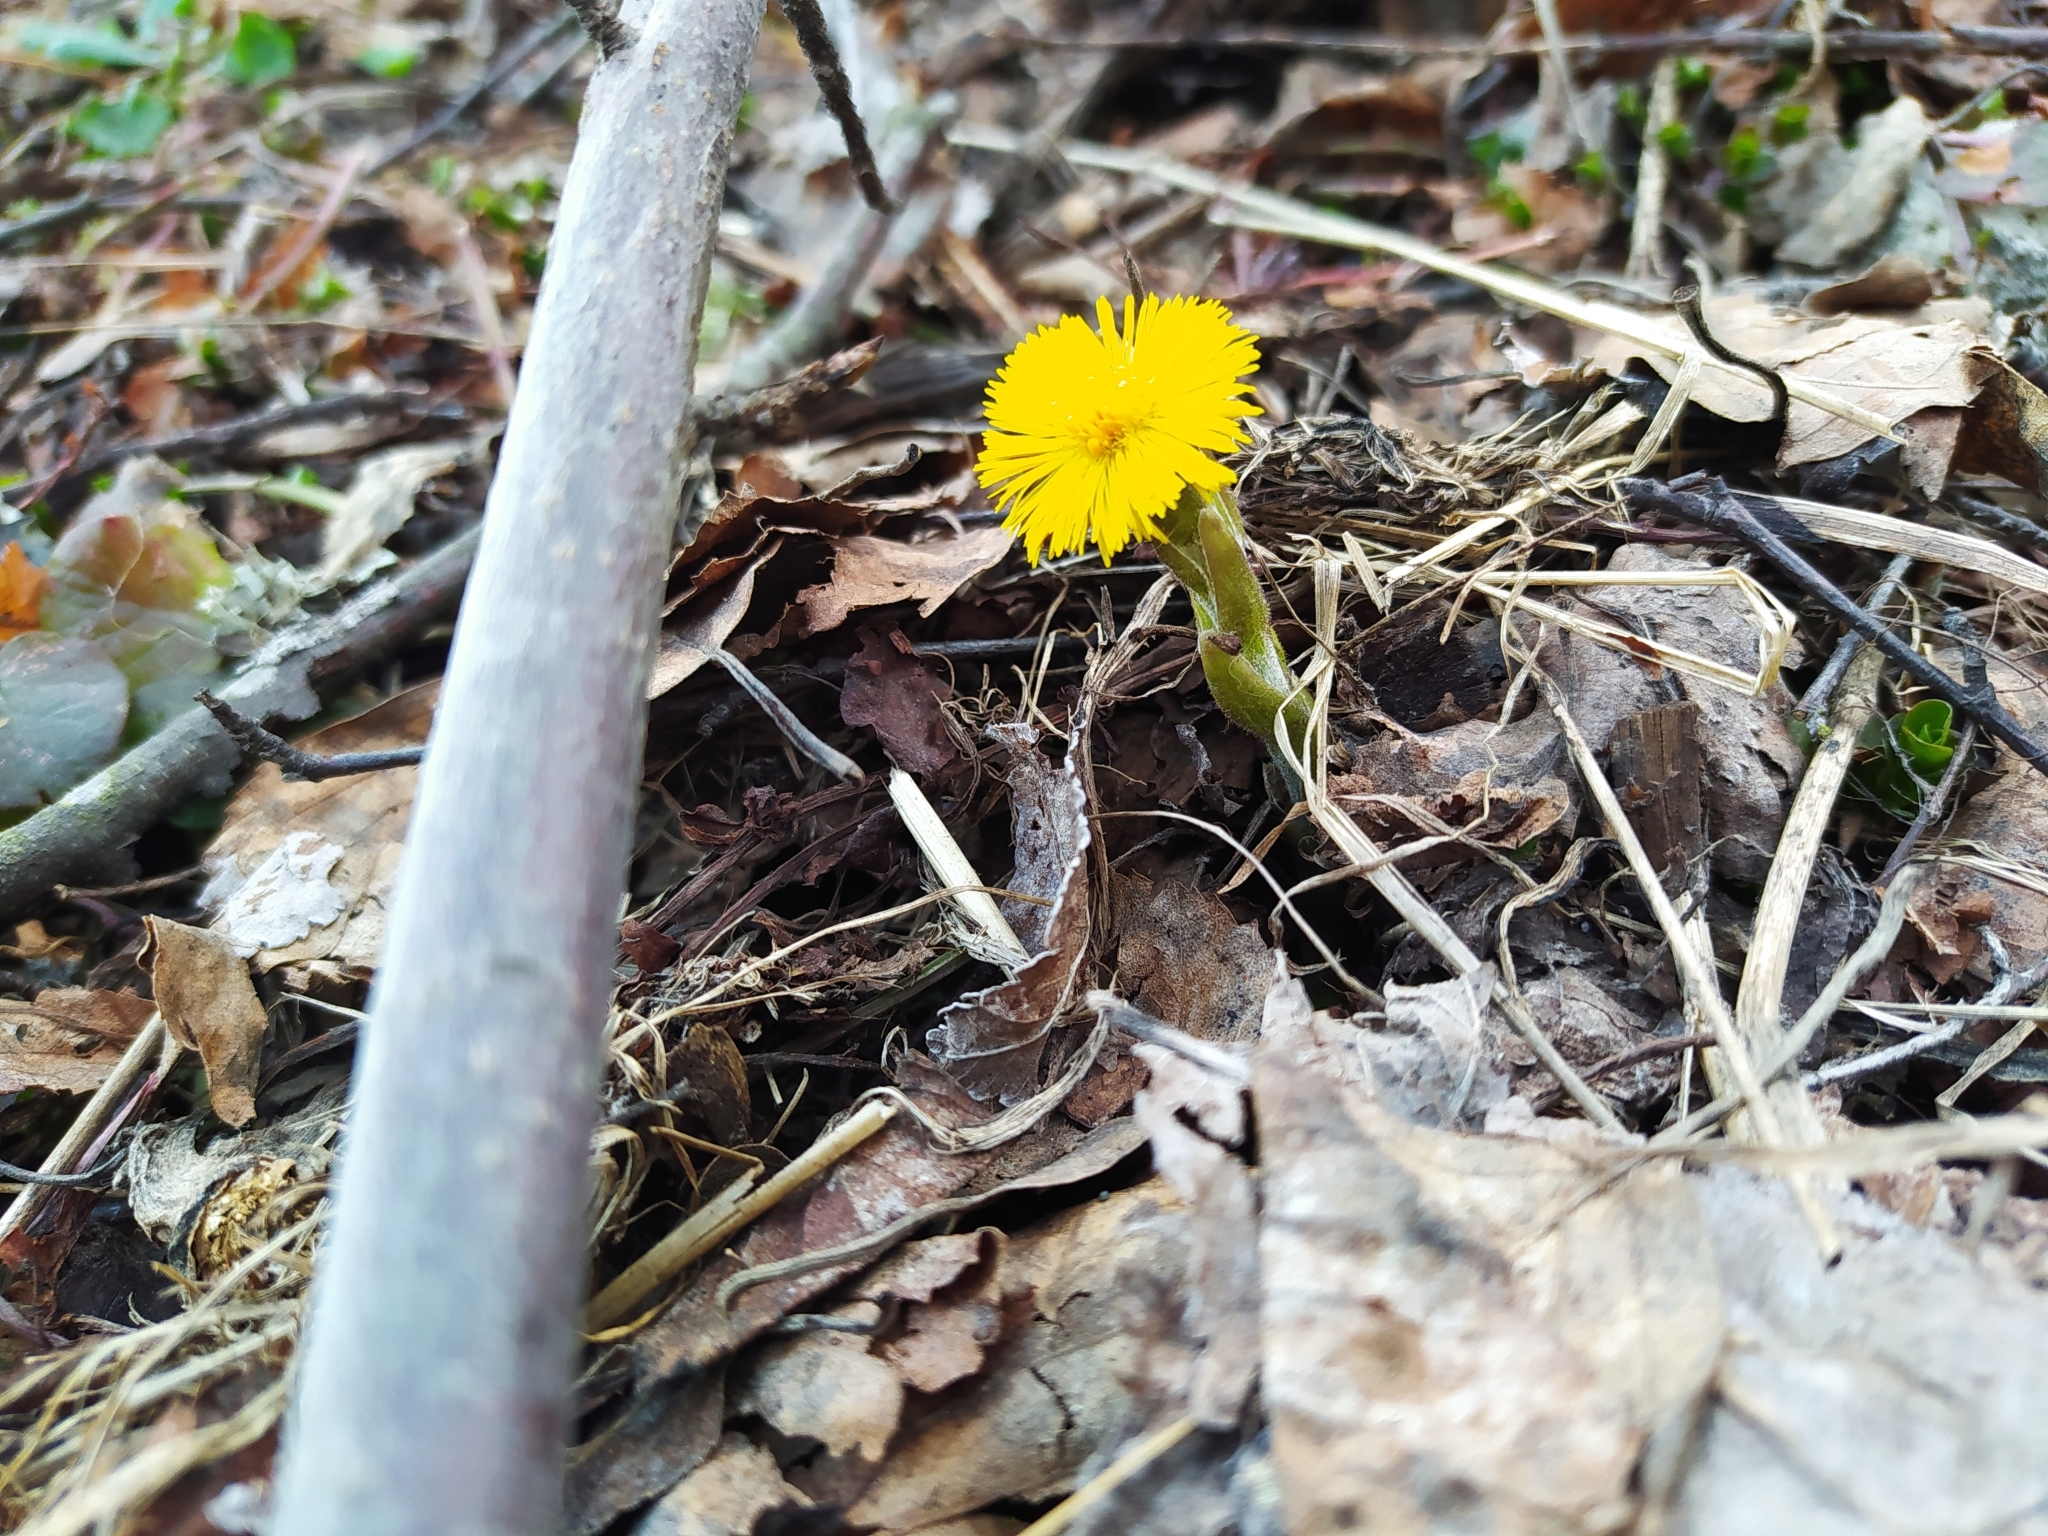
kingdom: Plantae
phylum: Tracheophyta
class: Magnoliopsida
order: Asterales
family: Asteraceae
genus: Tussilago
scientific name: Tussilago farfara
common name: Coltsfoot
